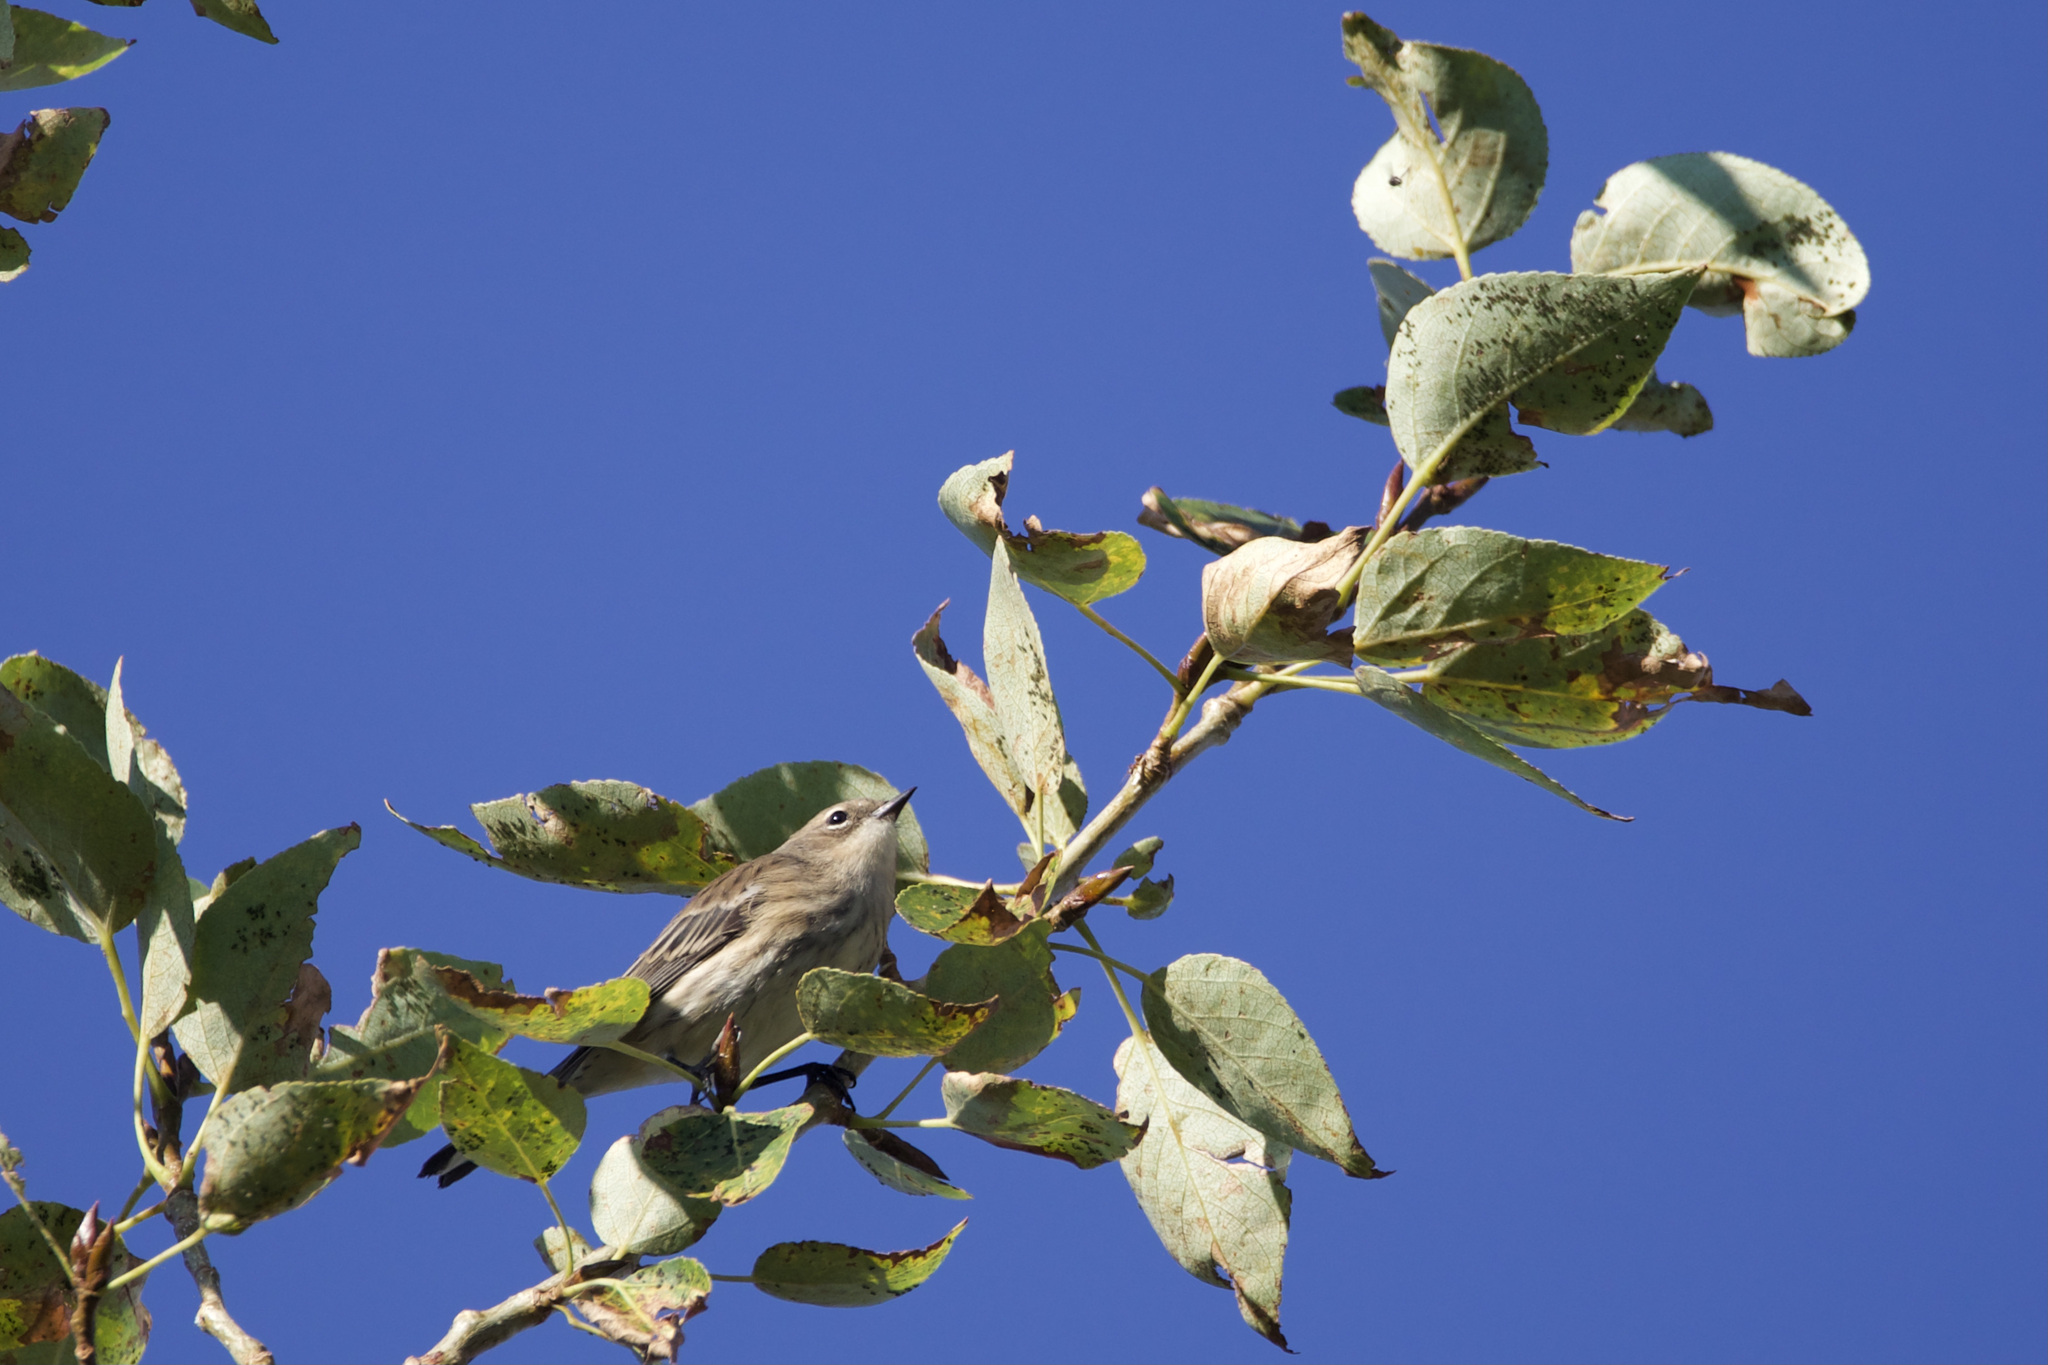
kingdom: Animalia
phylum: Chordata
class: Aves
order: Passeriformes
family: Parulidae
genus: Setophaga
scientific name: Setophaga coronata
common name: Myrtle warbler
